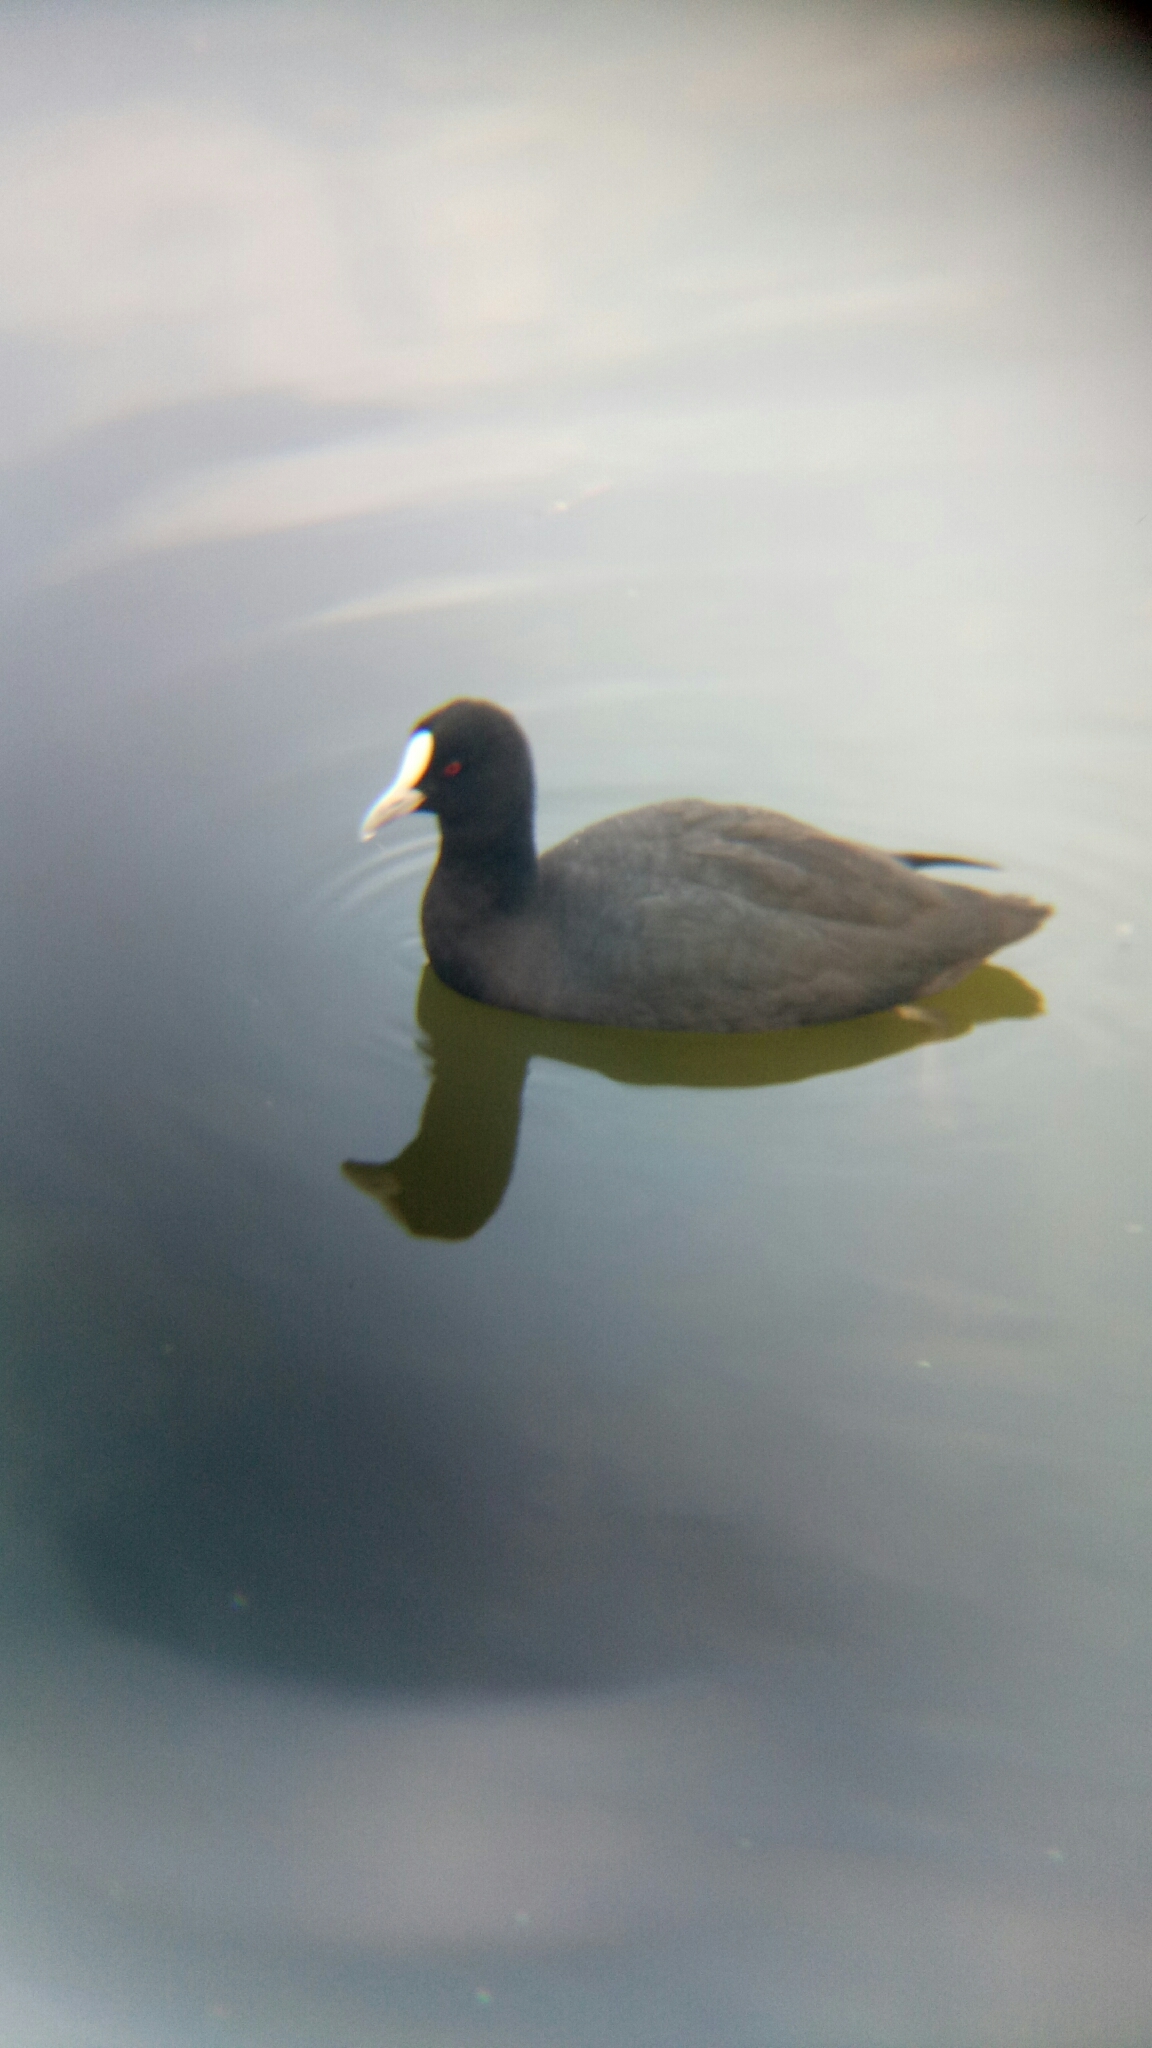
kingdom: Animalia
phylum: Chordata
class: Aves
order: Gruiformes
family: Rallidae
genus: Fulica
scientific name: Fulica atra
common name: Eurasian coot
